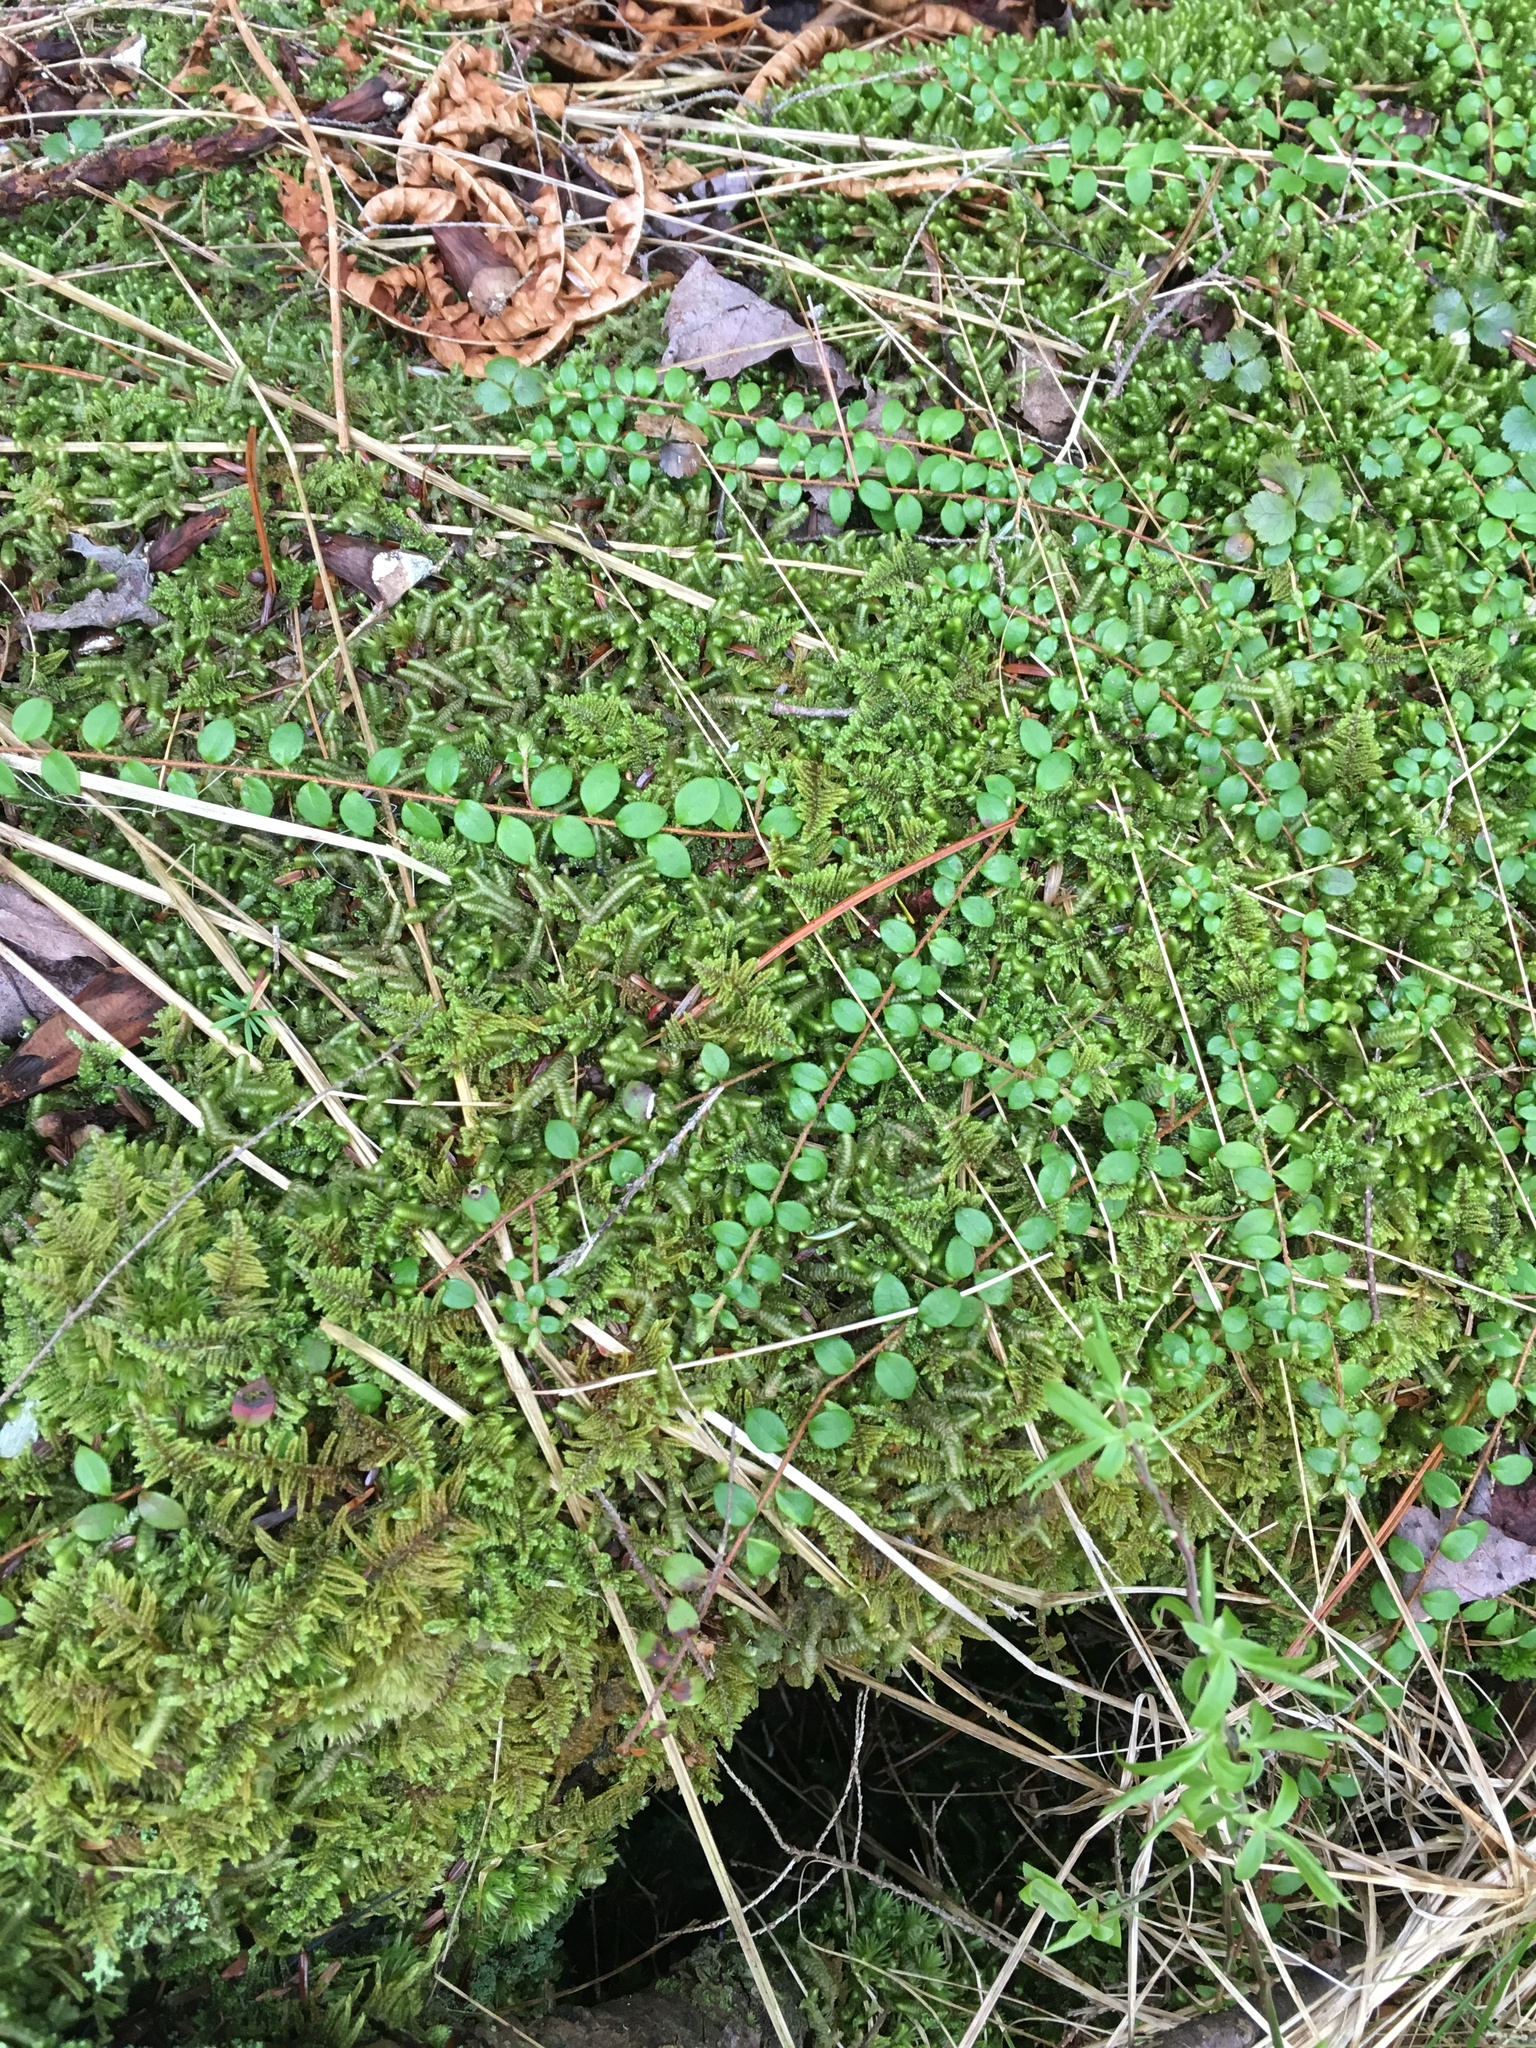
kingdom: Plantae
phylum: Tracheophyta
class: Magnoliopsida
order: Ericales
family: Ericaceae
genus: Gaultheria
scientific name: Gaultheria hispidula
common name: Cancer wintergreen
